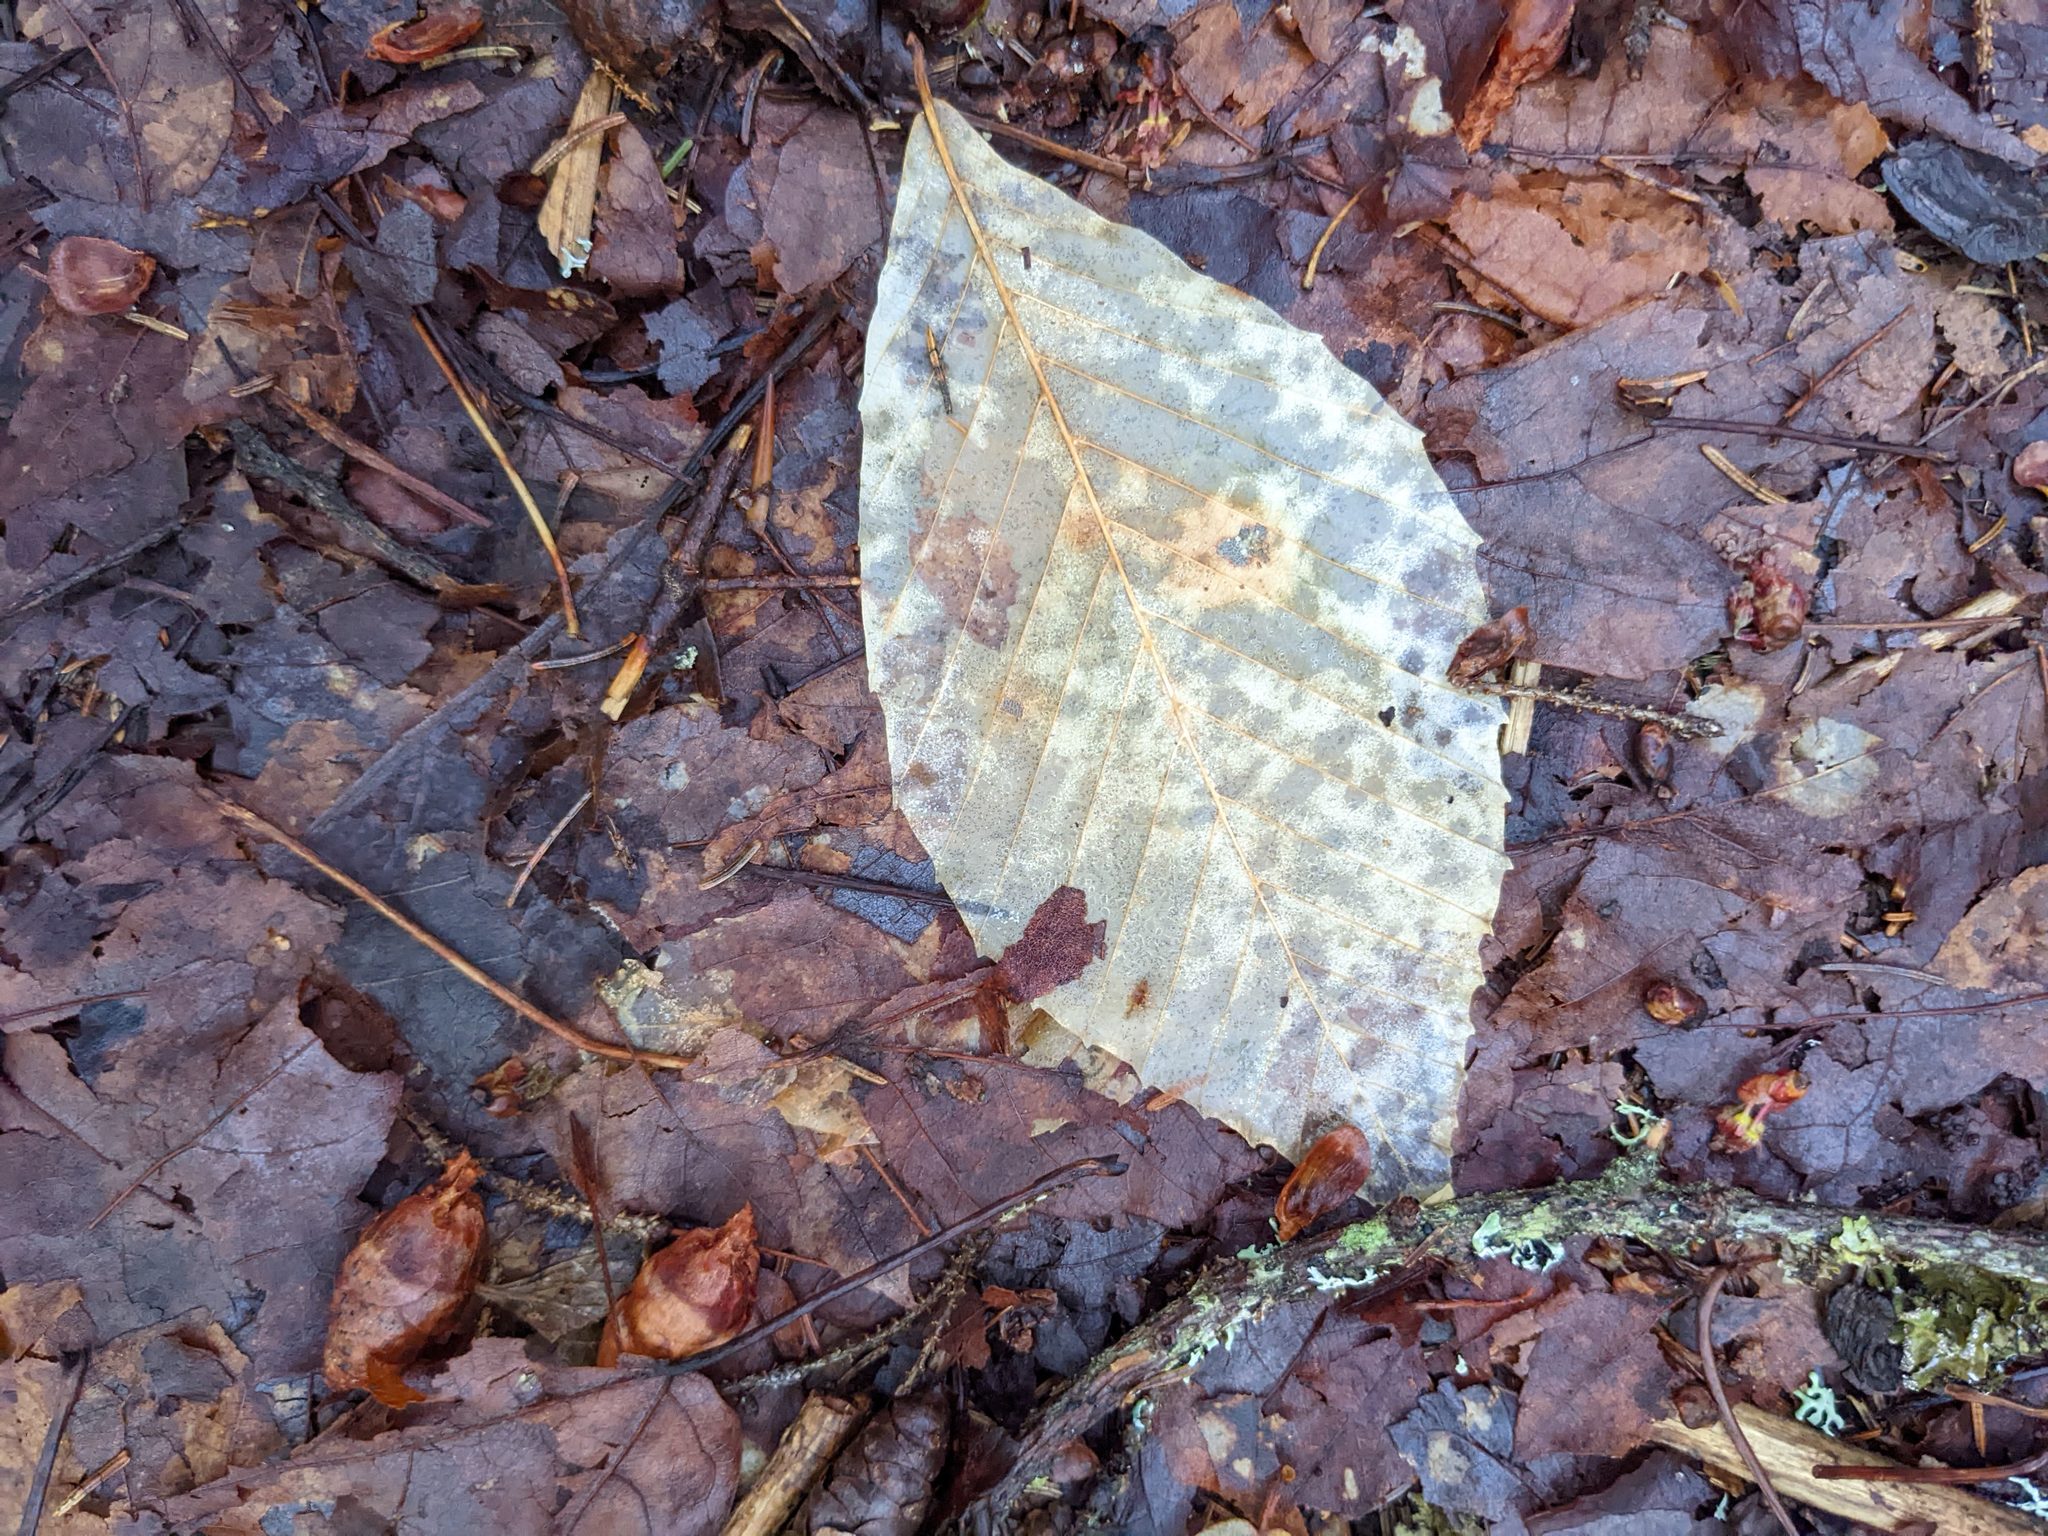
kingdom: Plantae
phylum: Tracheophyta
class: Magnoliopsida
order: Fagales
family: Fagaceae
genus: Fagus
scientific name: Fagus grandifolia
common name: American beech
